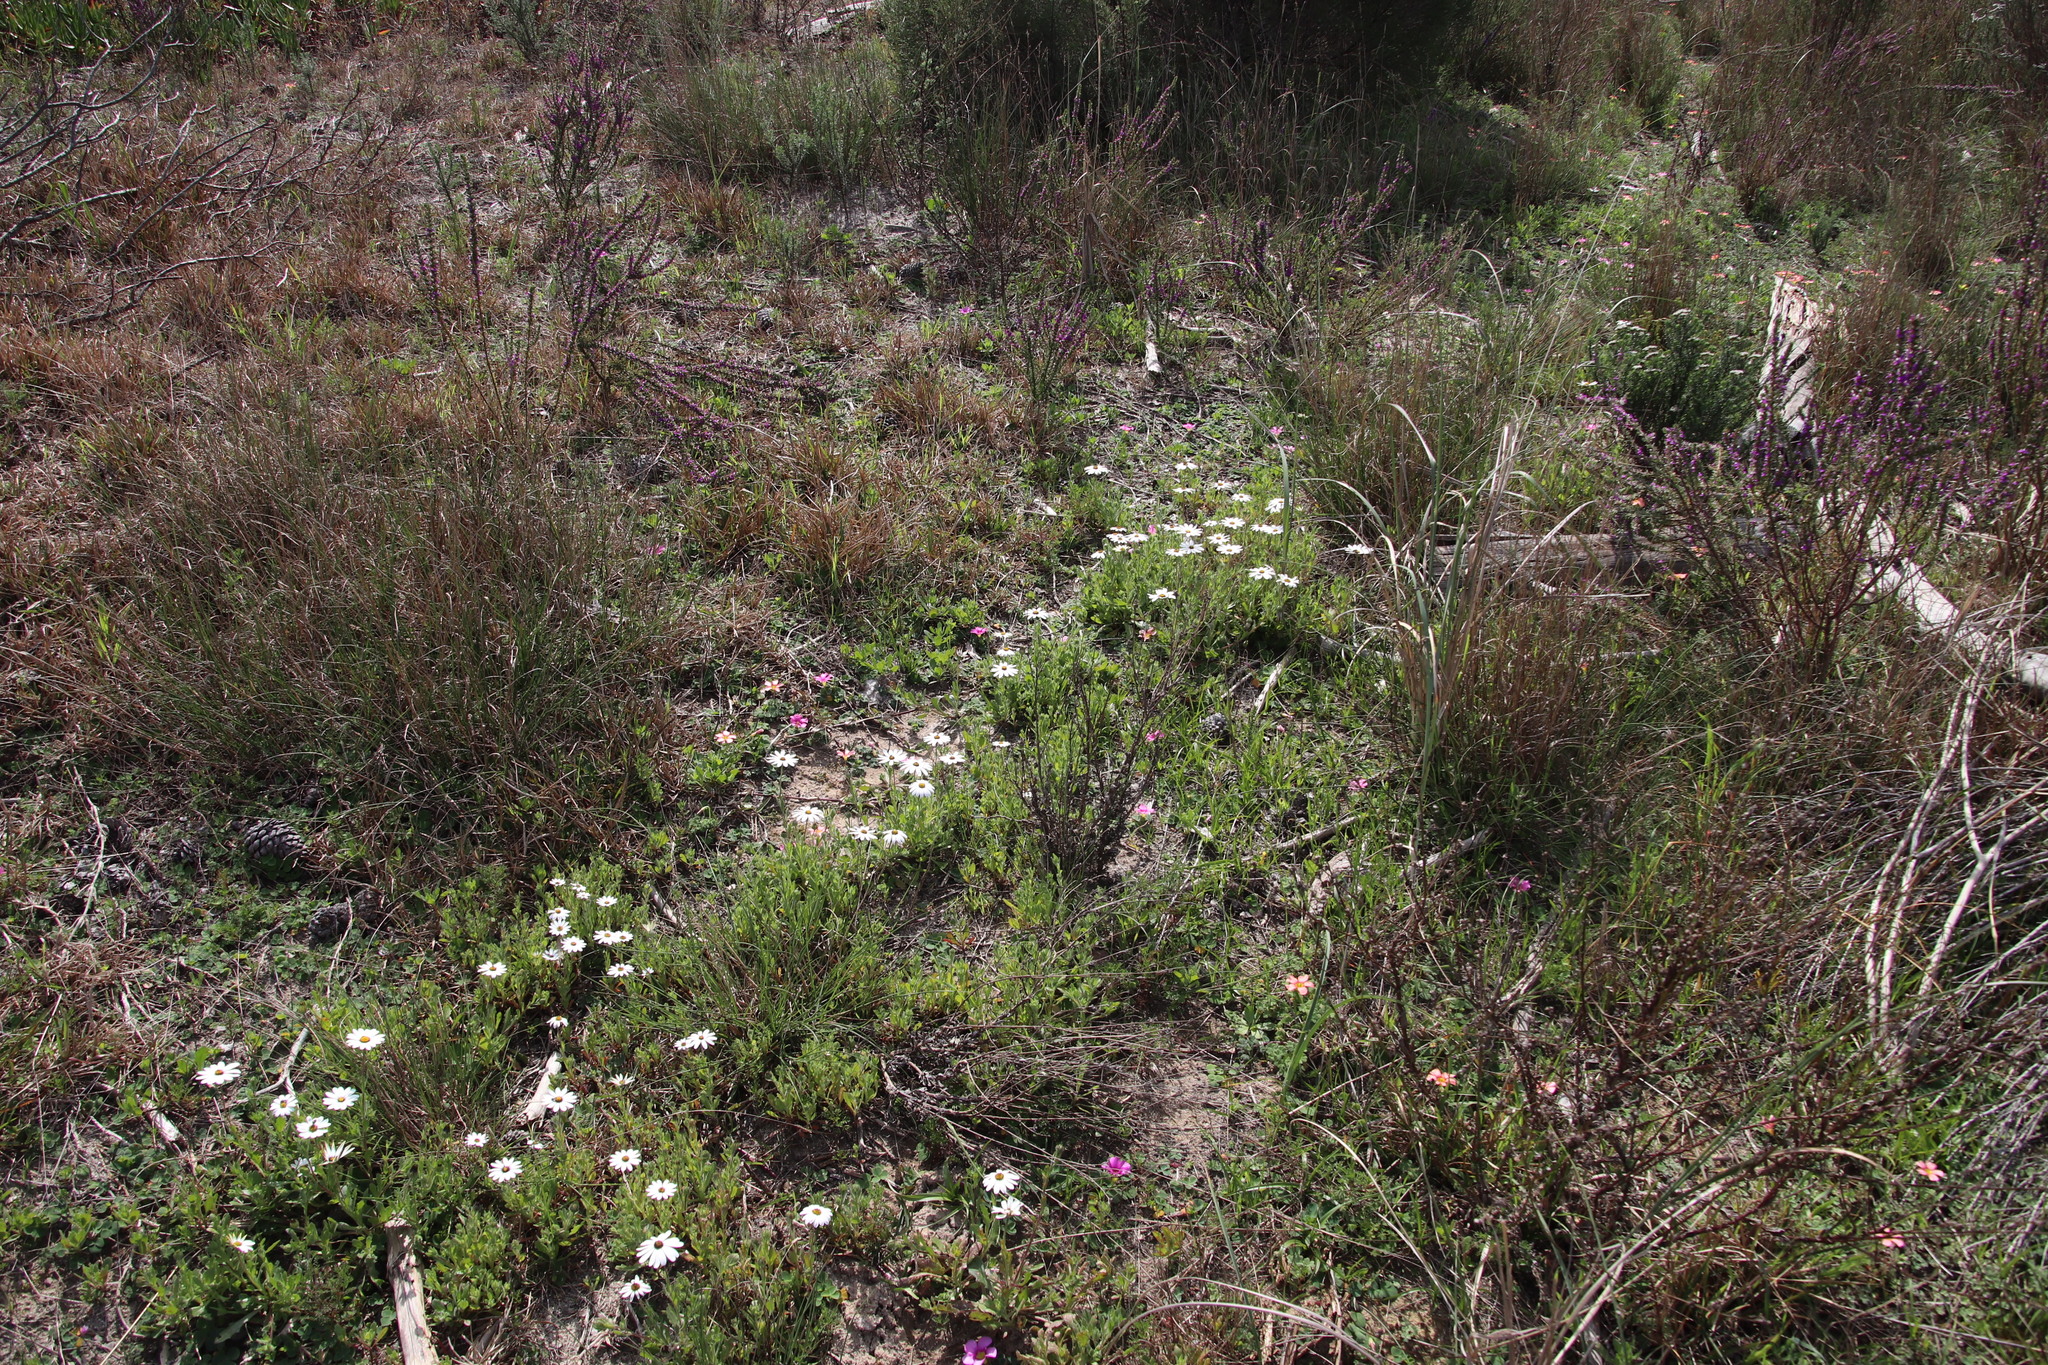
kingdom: Plantae
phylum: Tracheophyta
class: Magnoliopsida
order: Asterales
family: Asteraceae
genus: Dimorphotheca
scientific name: Dimorphotheca pluvialis
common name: Weather prophet
